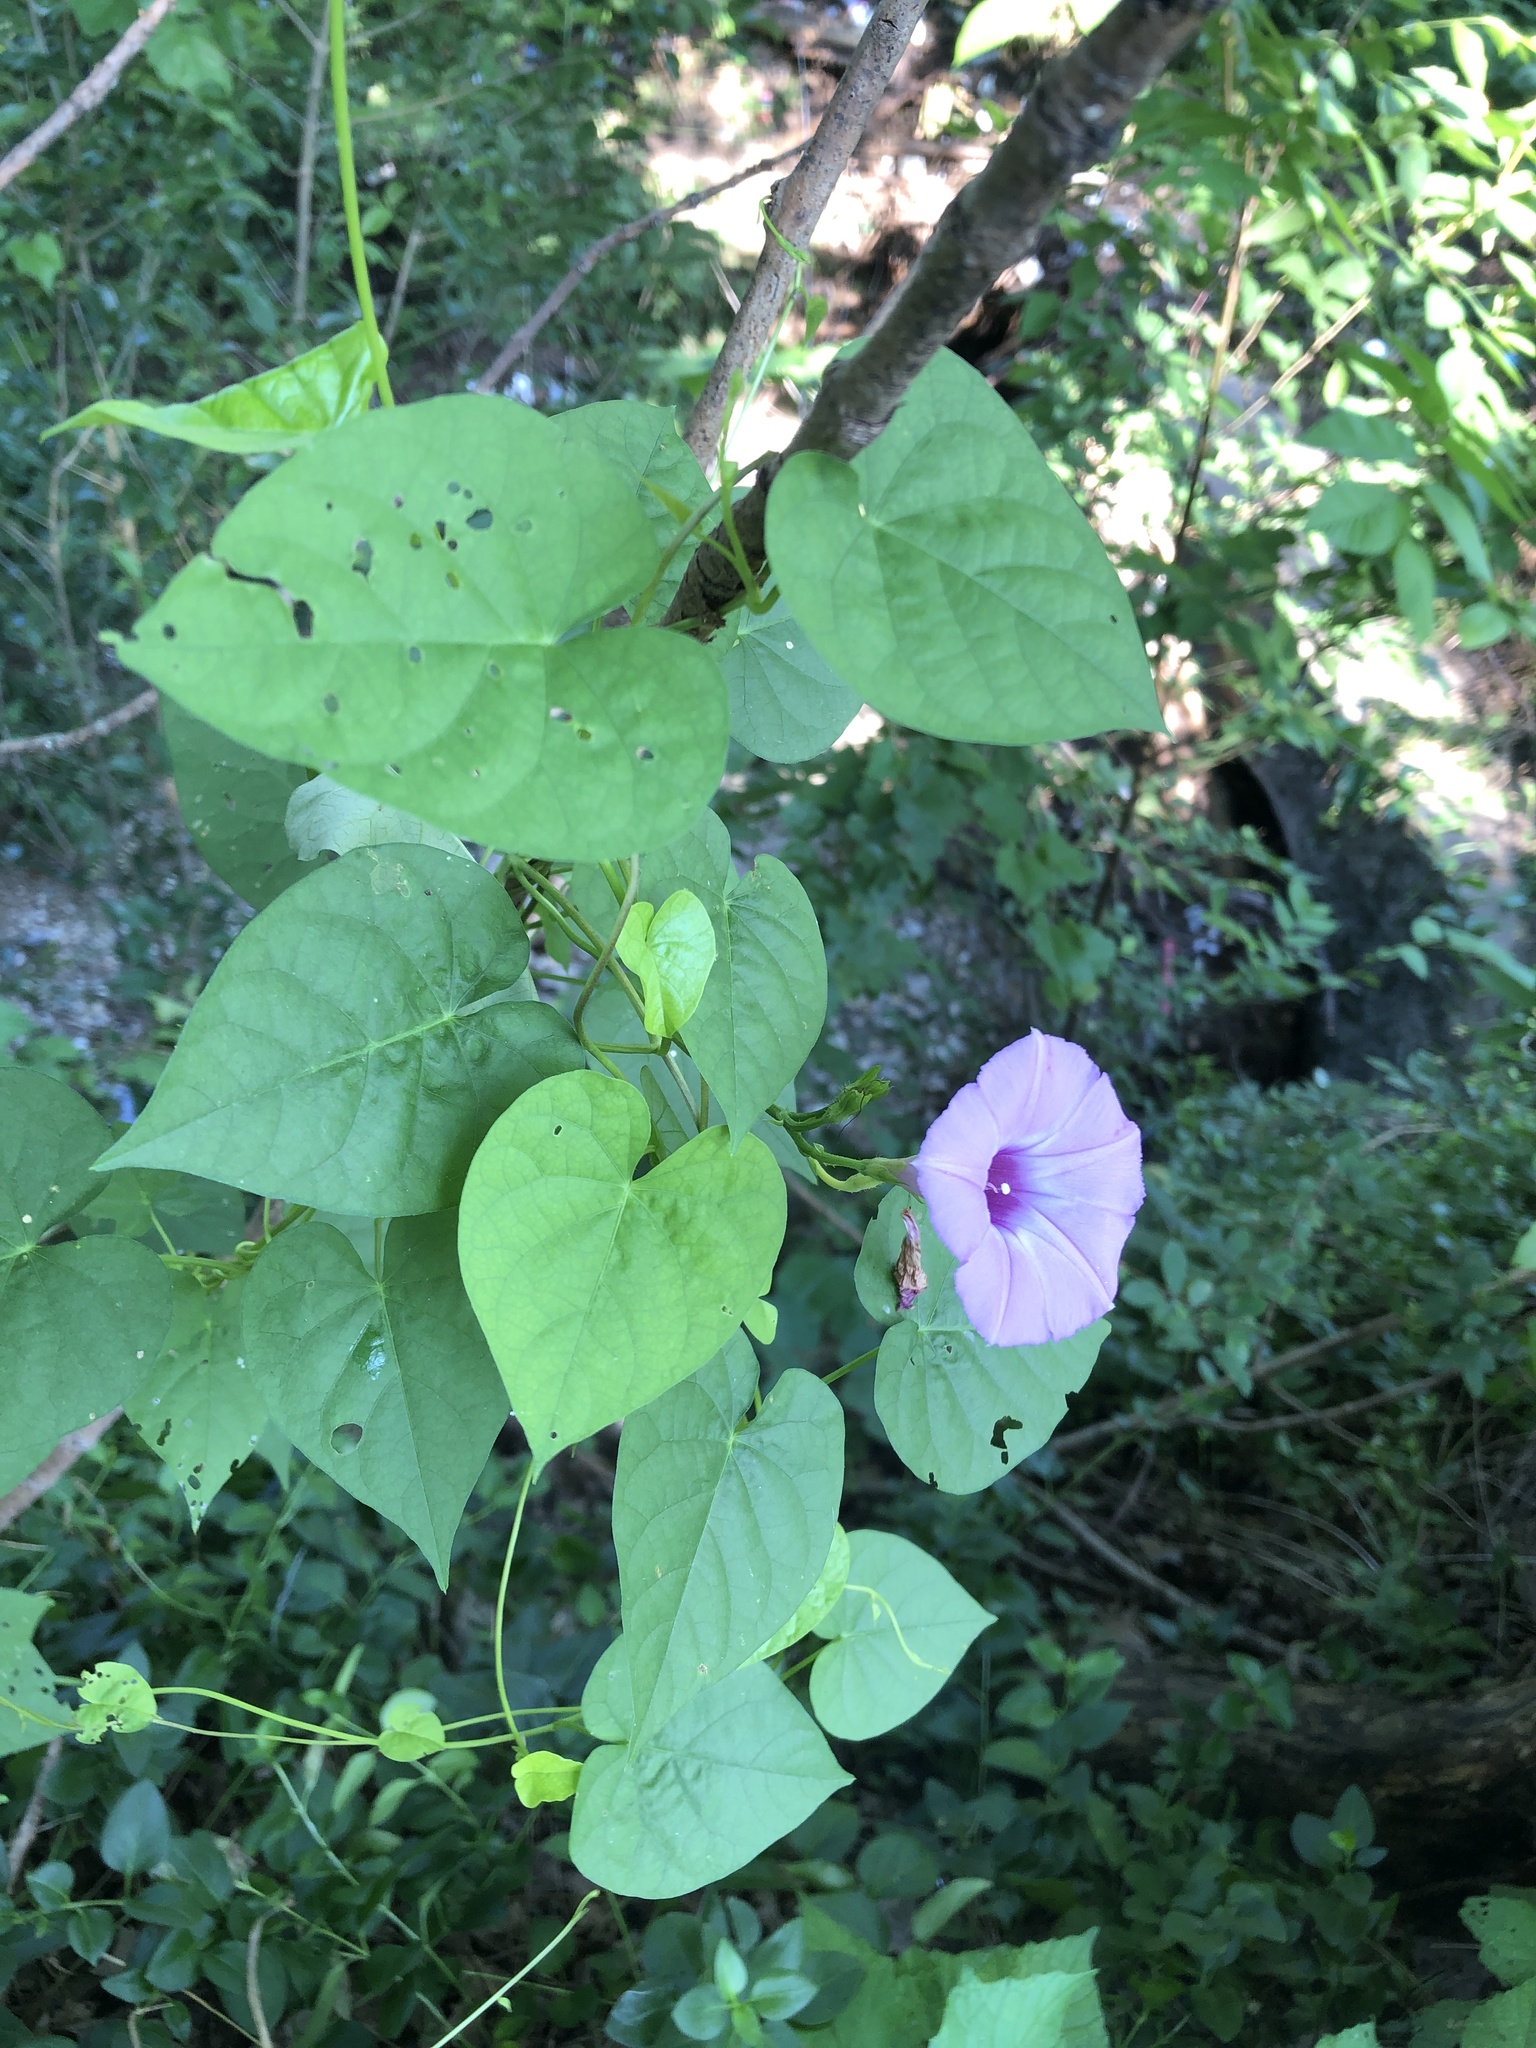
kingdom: Plantae
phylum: Tracheophyta
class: Magnoliopsida
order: Solanales
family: Convolvulaceae
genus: Ipomoea
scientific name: Ipomoea cordatotriloba
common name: Cotton morning glory
